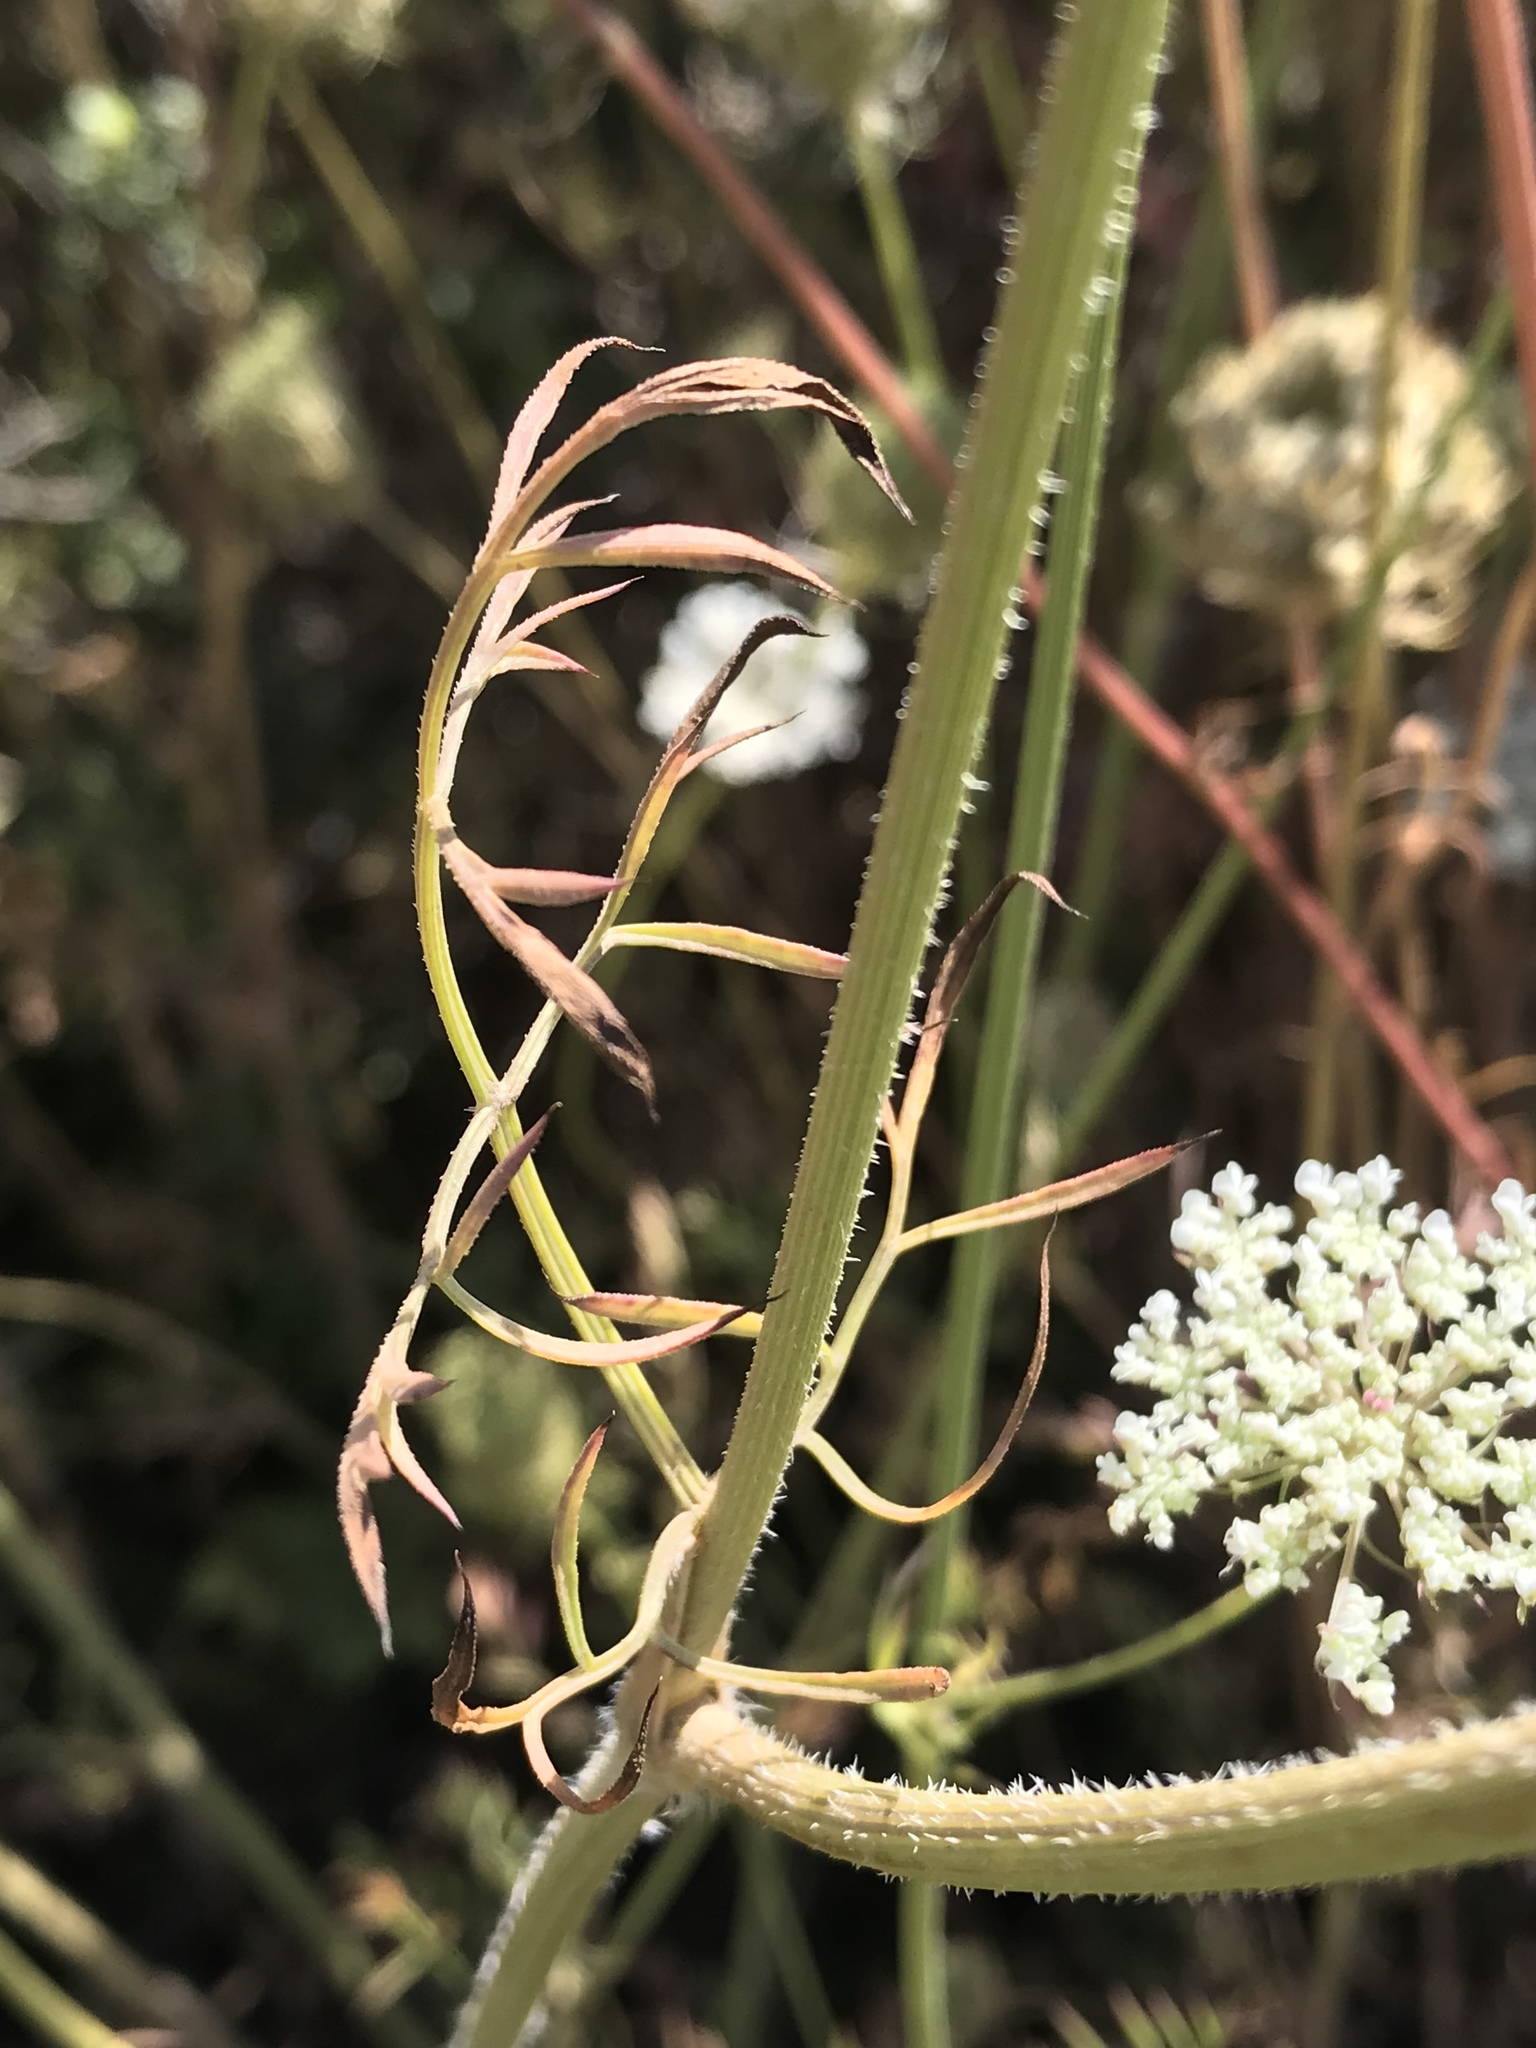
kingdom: Plantae
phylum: Tracheophyta
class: Magnoliopsida
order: Apiales
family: Apiaceae
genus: Daucus
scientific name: Daucus carota
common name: Wild carrot
